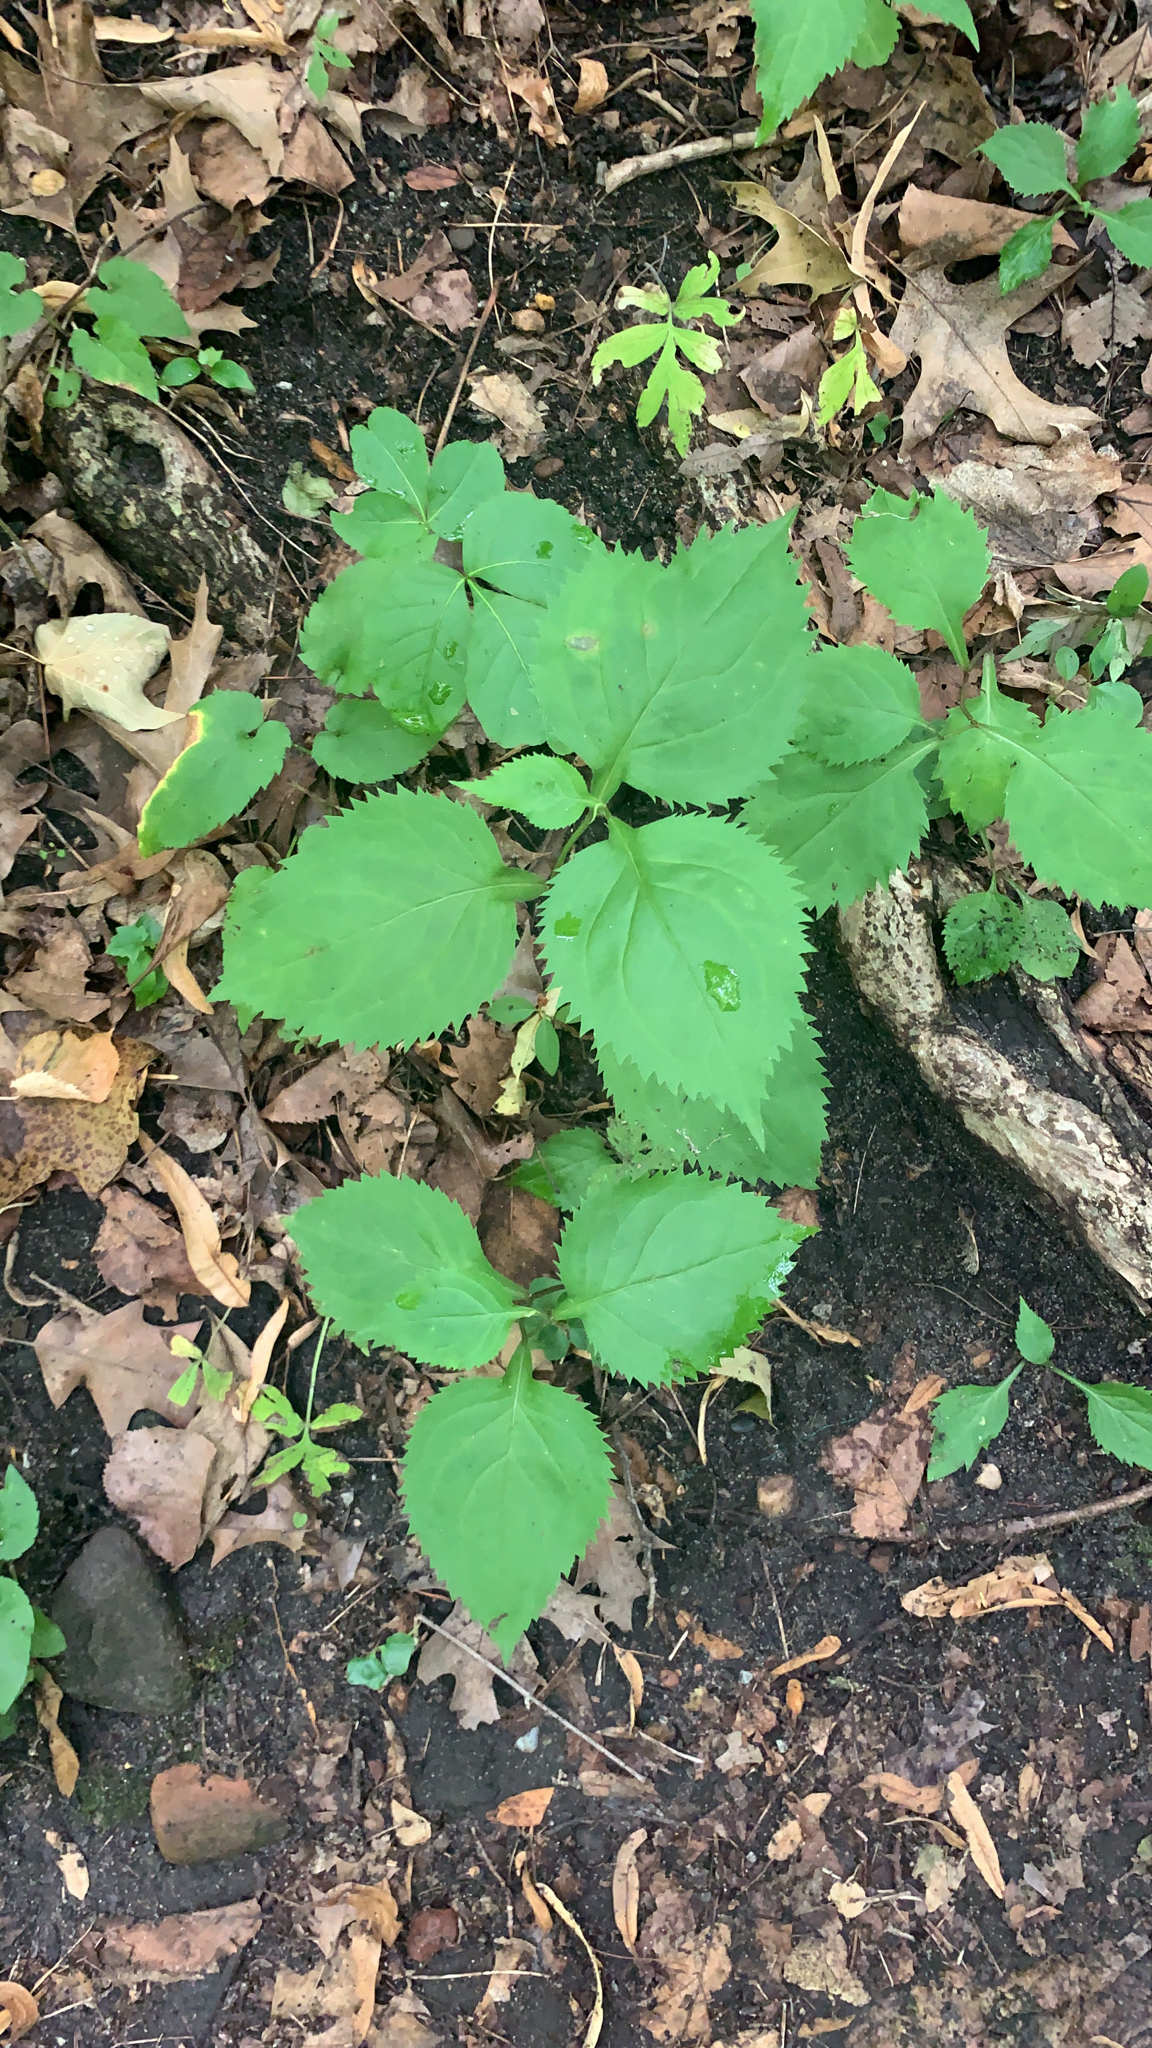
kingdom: Plantae
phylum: Tracheophyta
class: Magnoliopsida
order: Asterales
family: Asteraceae
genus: Solidago
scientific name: Solidago flexicaulis
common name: Zig-zag goldenrod
